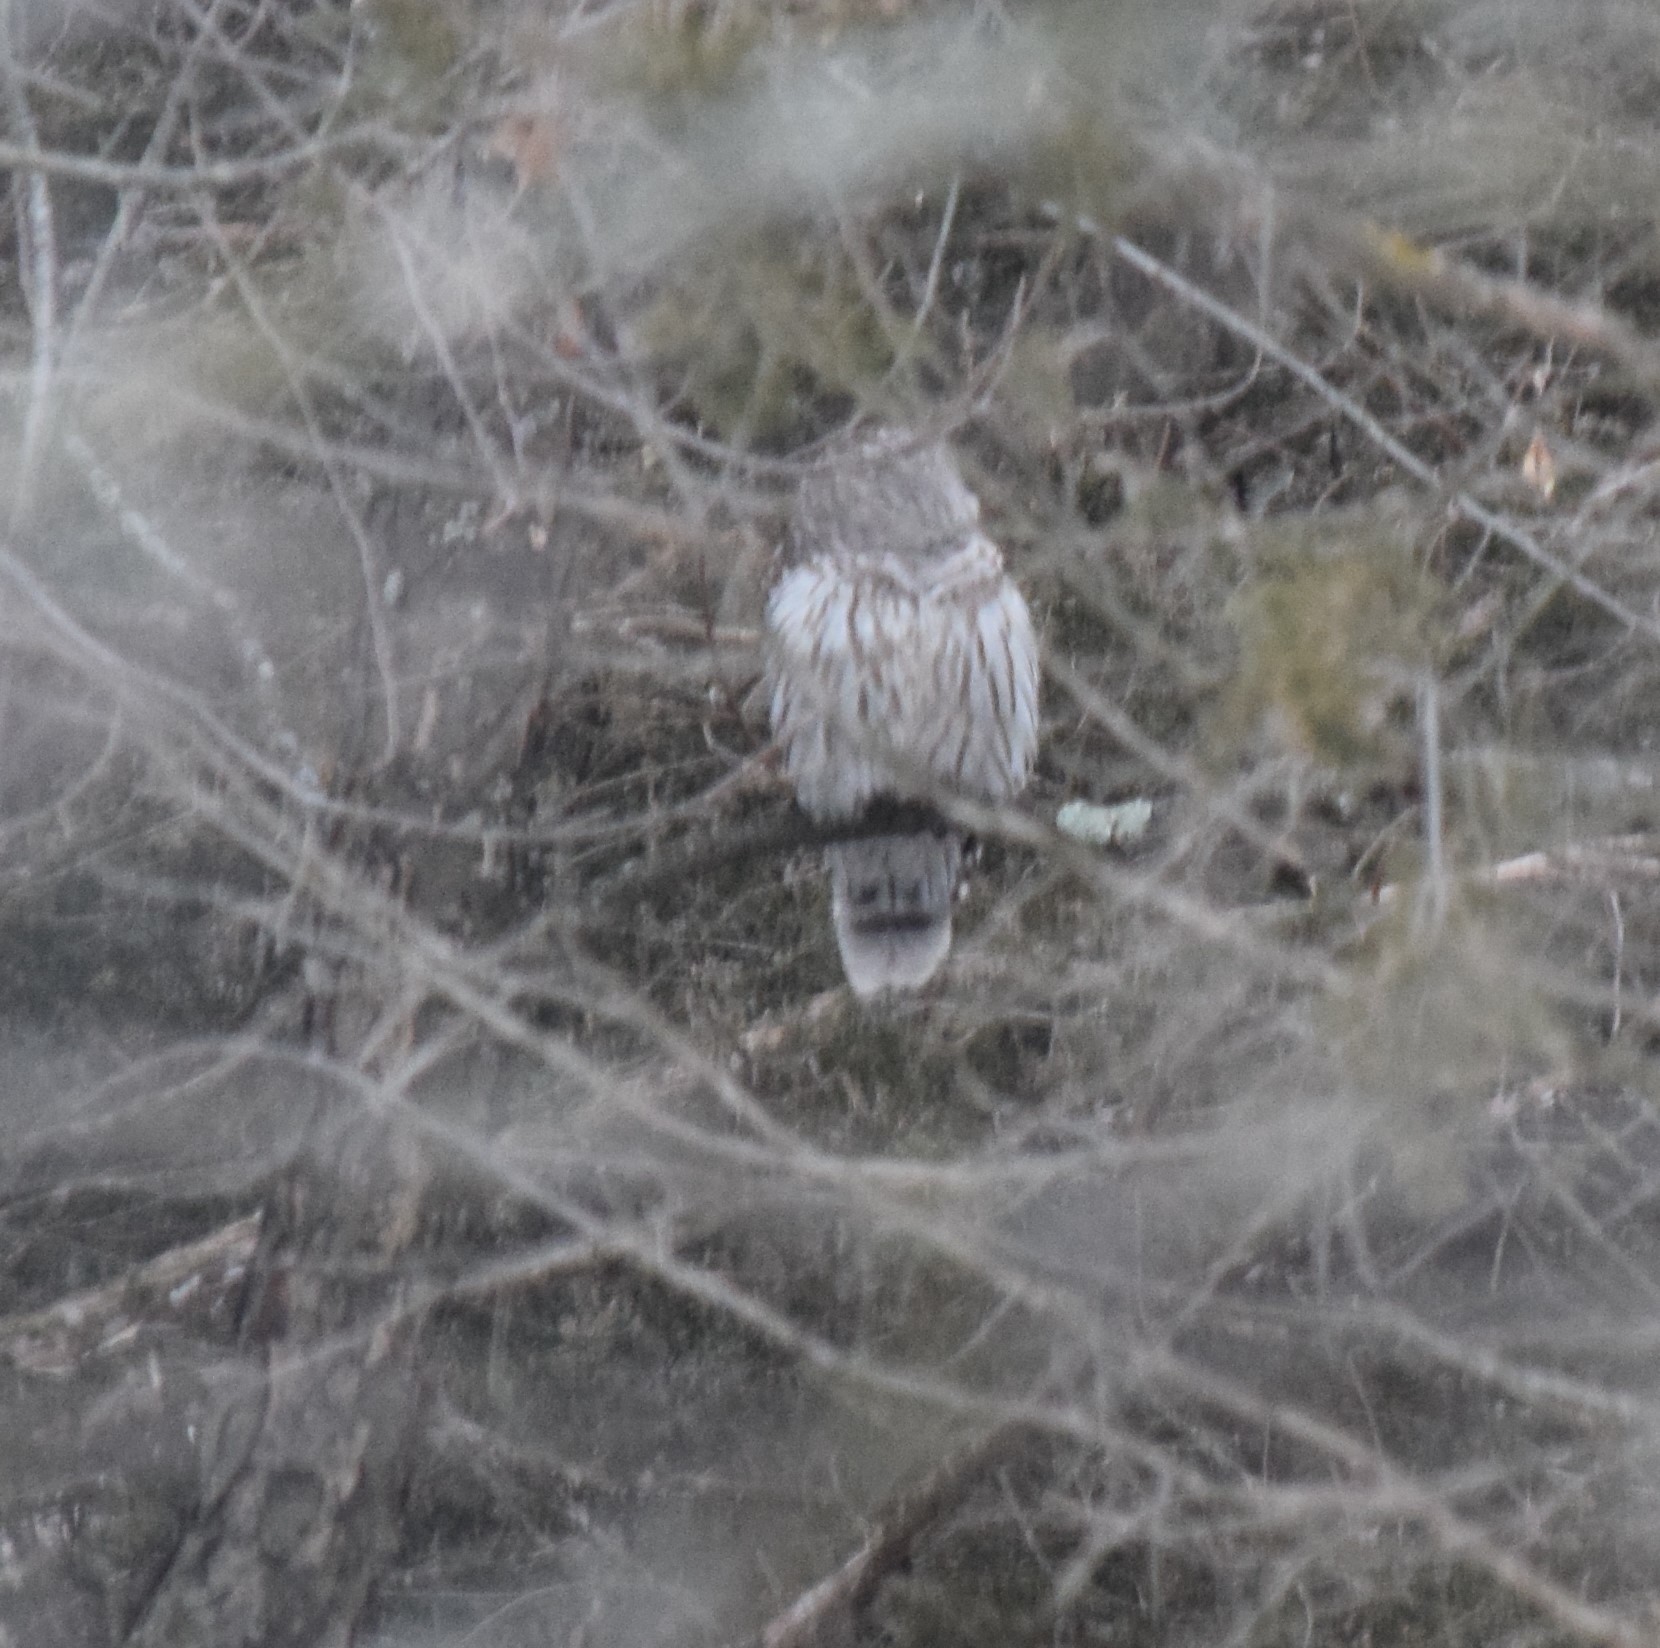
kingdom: Animalia
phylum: Chordata
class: Aves
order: Strigiformes
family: Strigidae
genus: Strix
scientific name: Strix varia
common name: Barred owl
